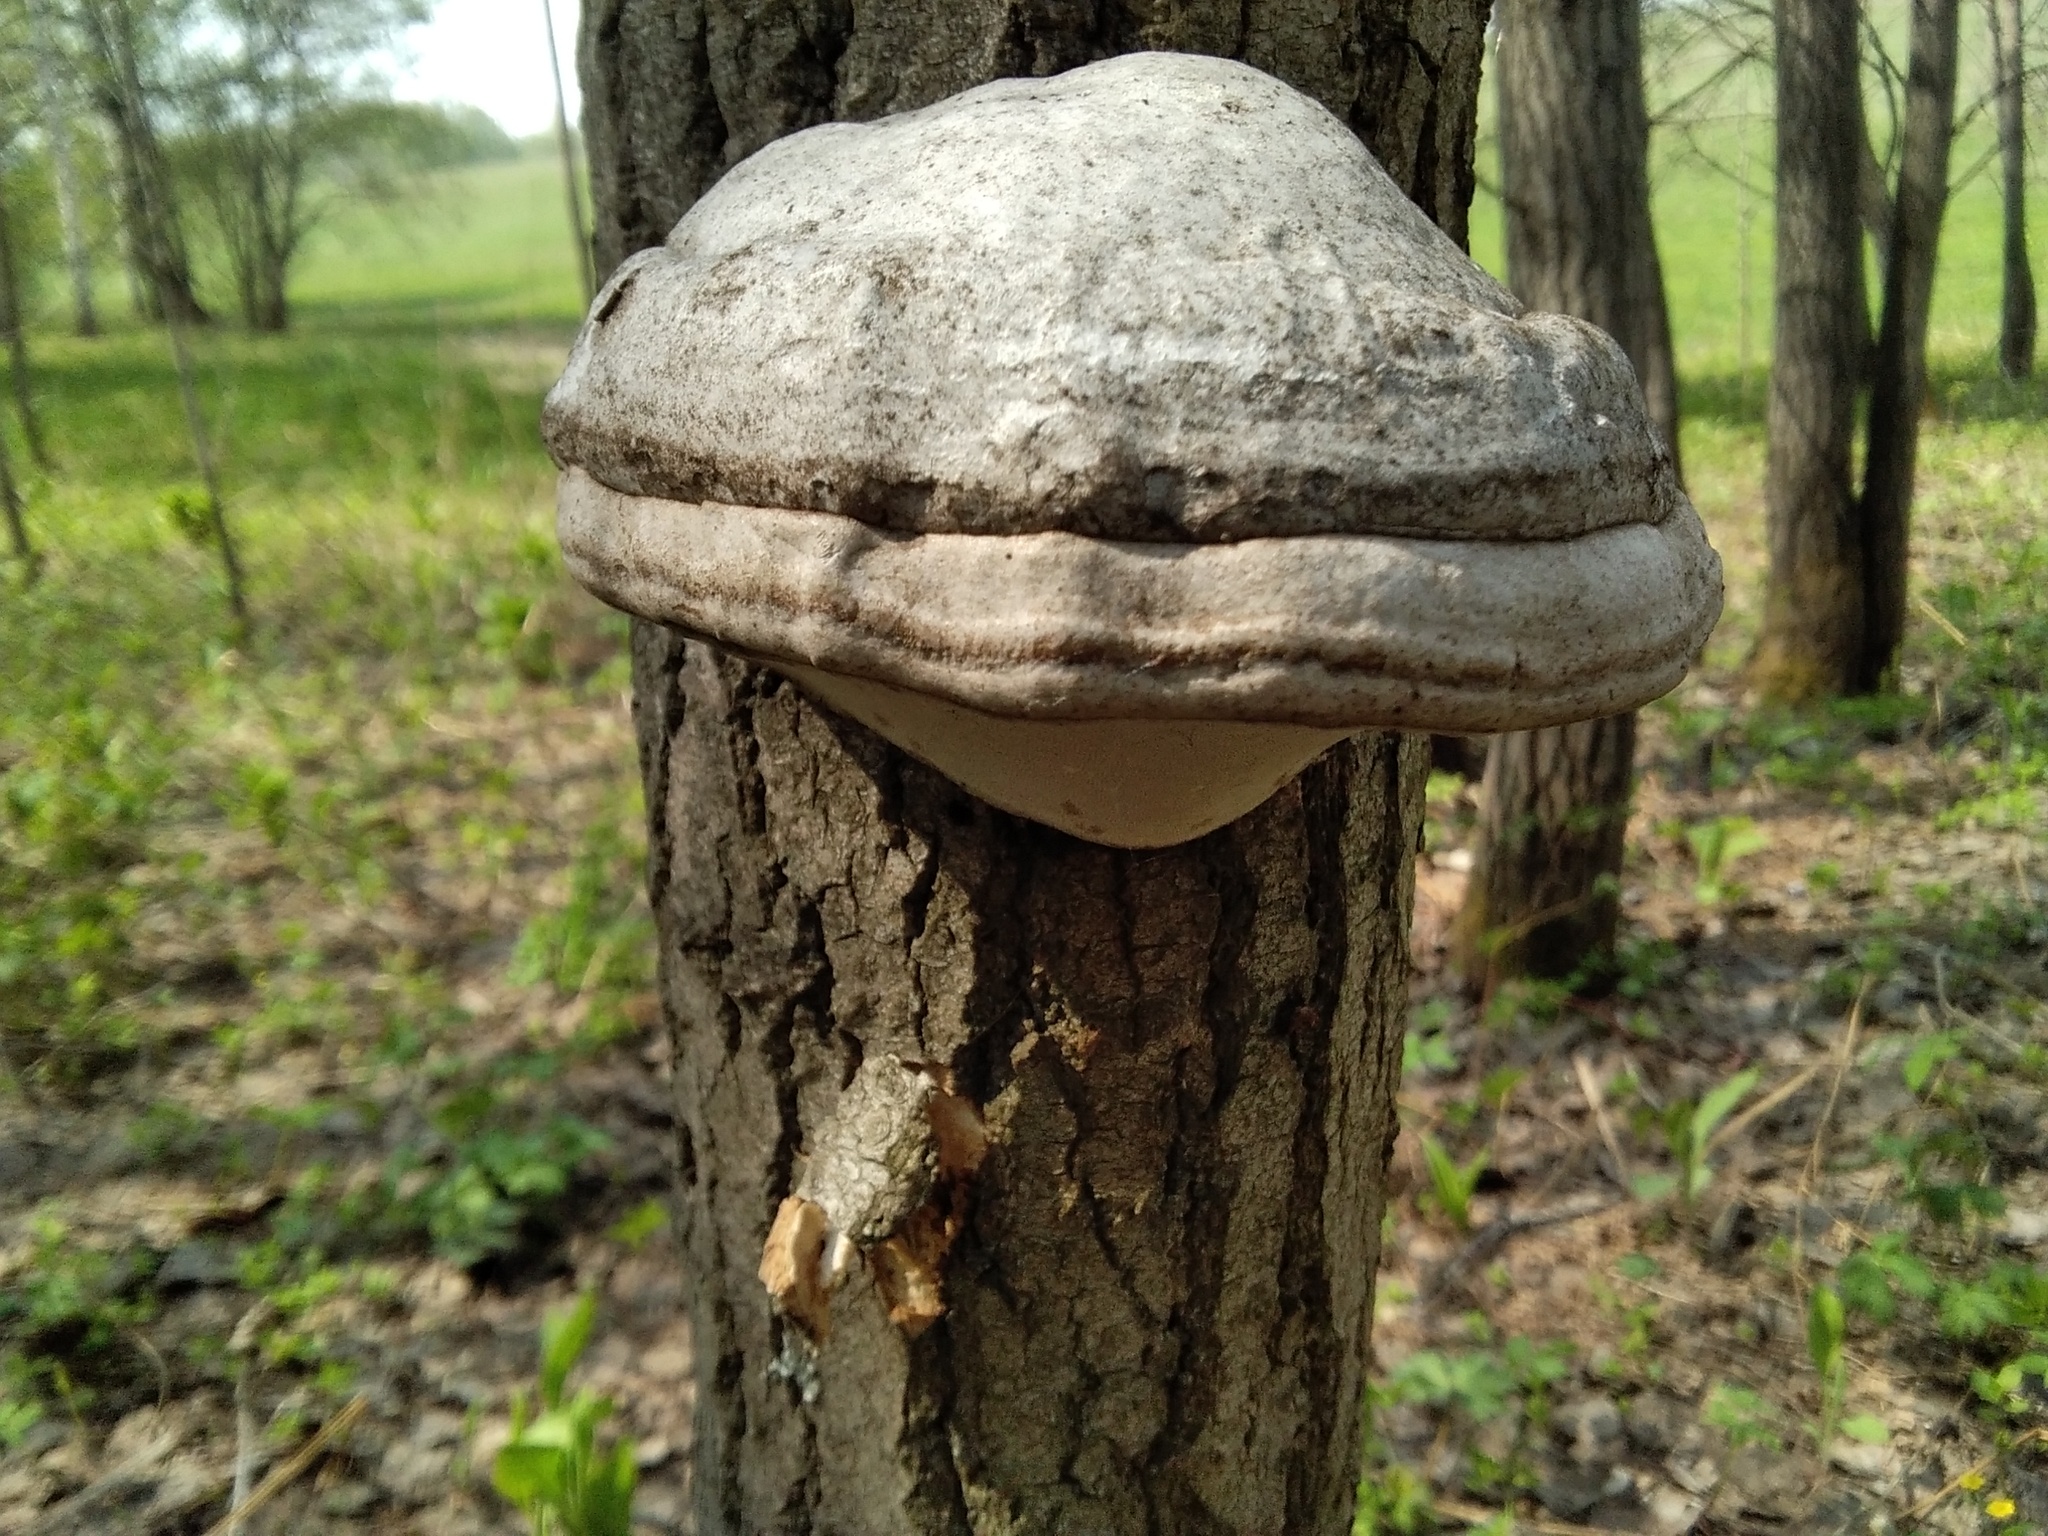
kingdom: Fungi
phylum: Basidiomycota
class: Agaricomycetes
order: Polyporales
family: Polyporaceae
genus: Fomes
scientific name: Fomes fomentarius
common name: Hoof fungus
